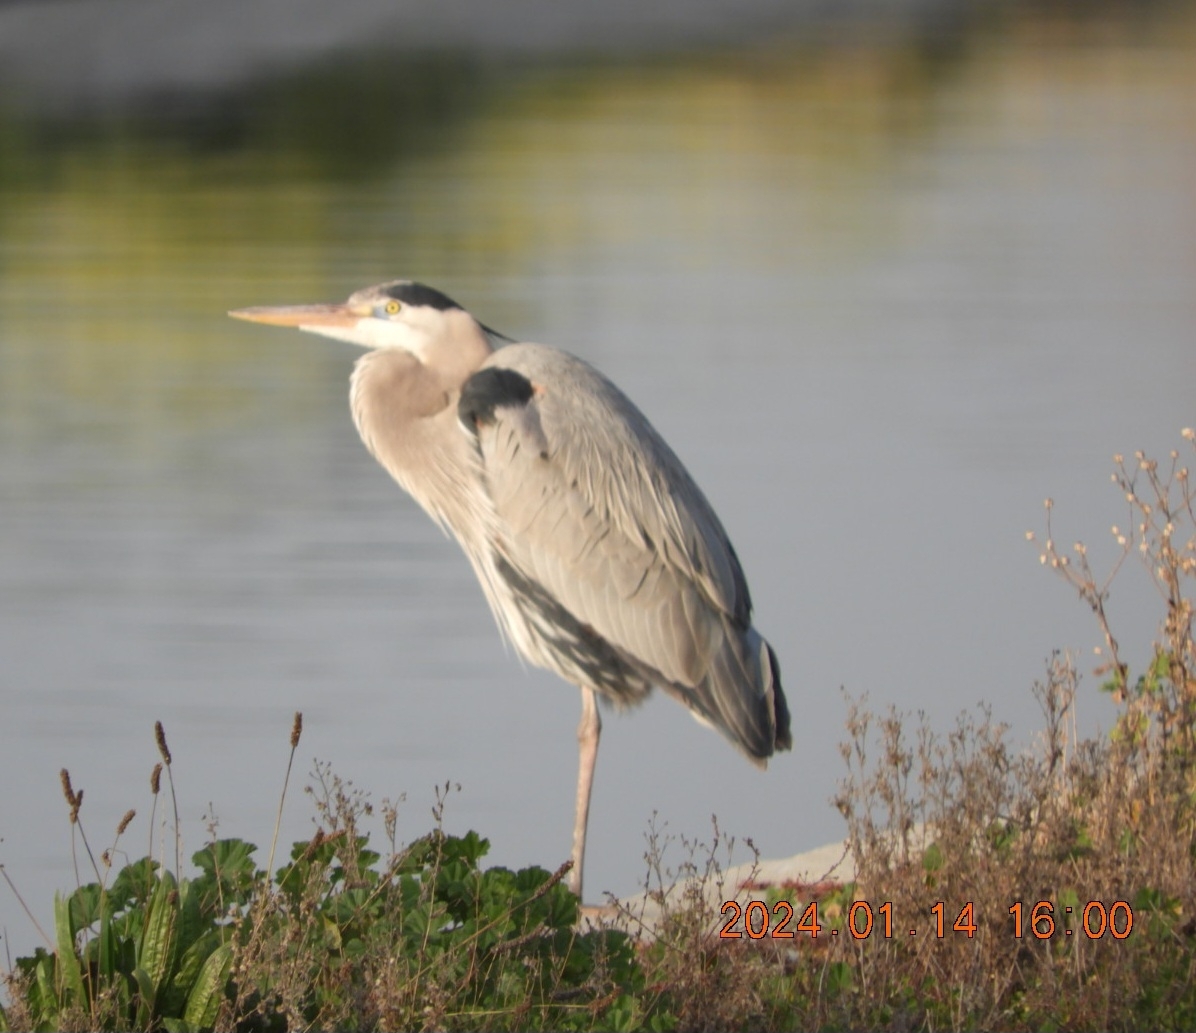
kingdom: Animalia
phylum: Chordata
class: Aves
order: Pelecaniformes
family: Ardeidae
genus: Ardea
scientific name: Ardea herodias
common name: Great blue heron
